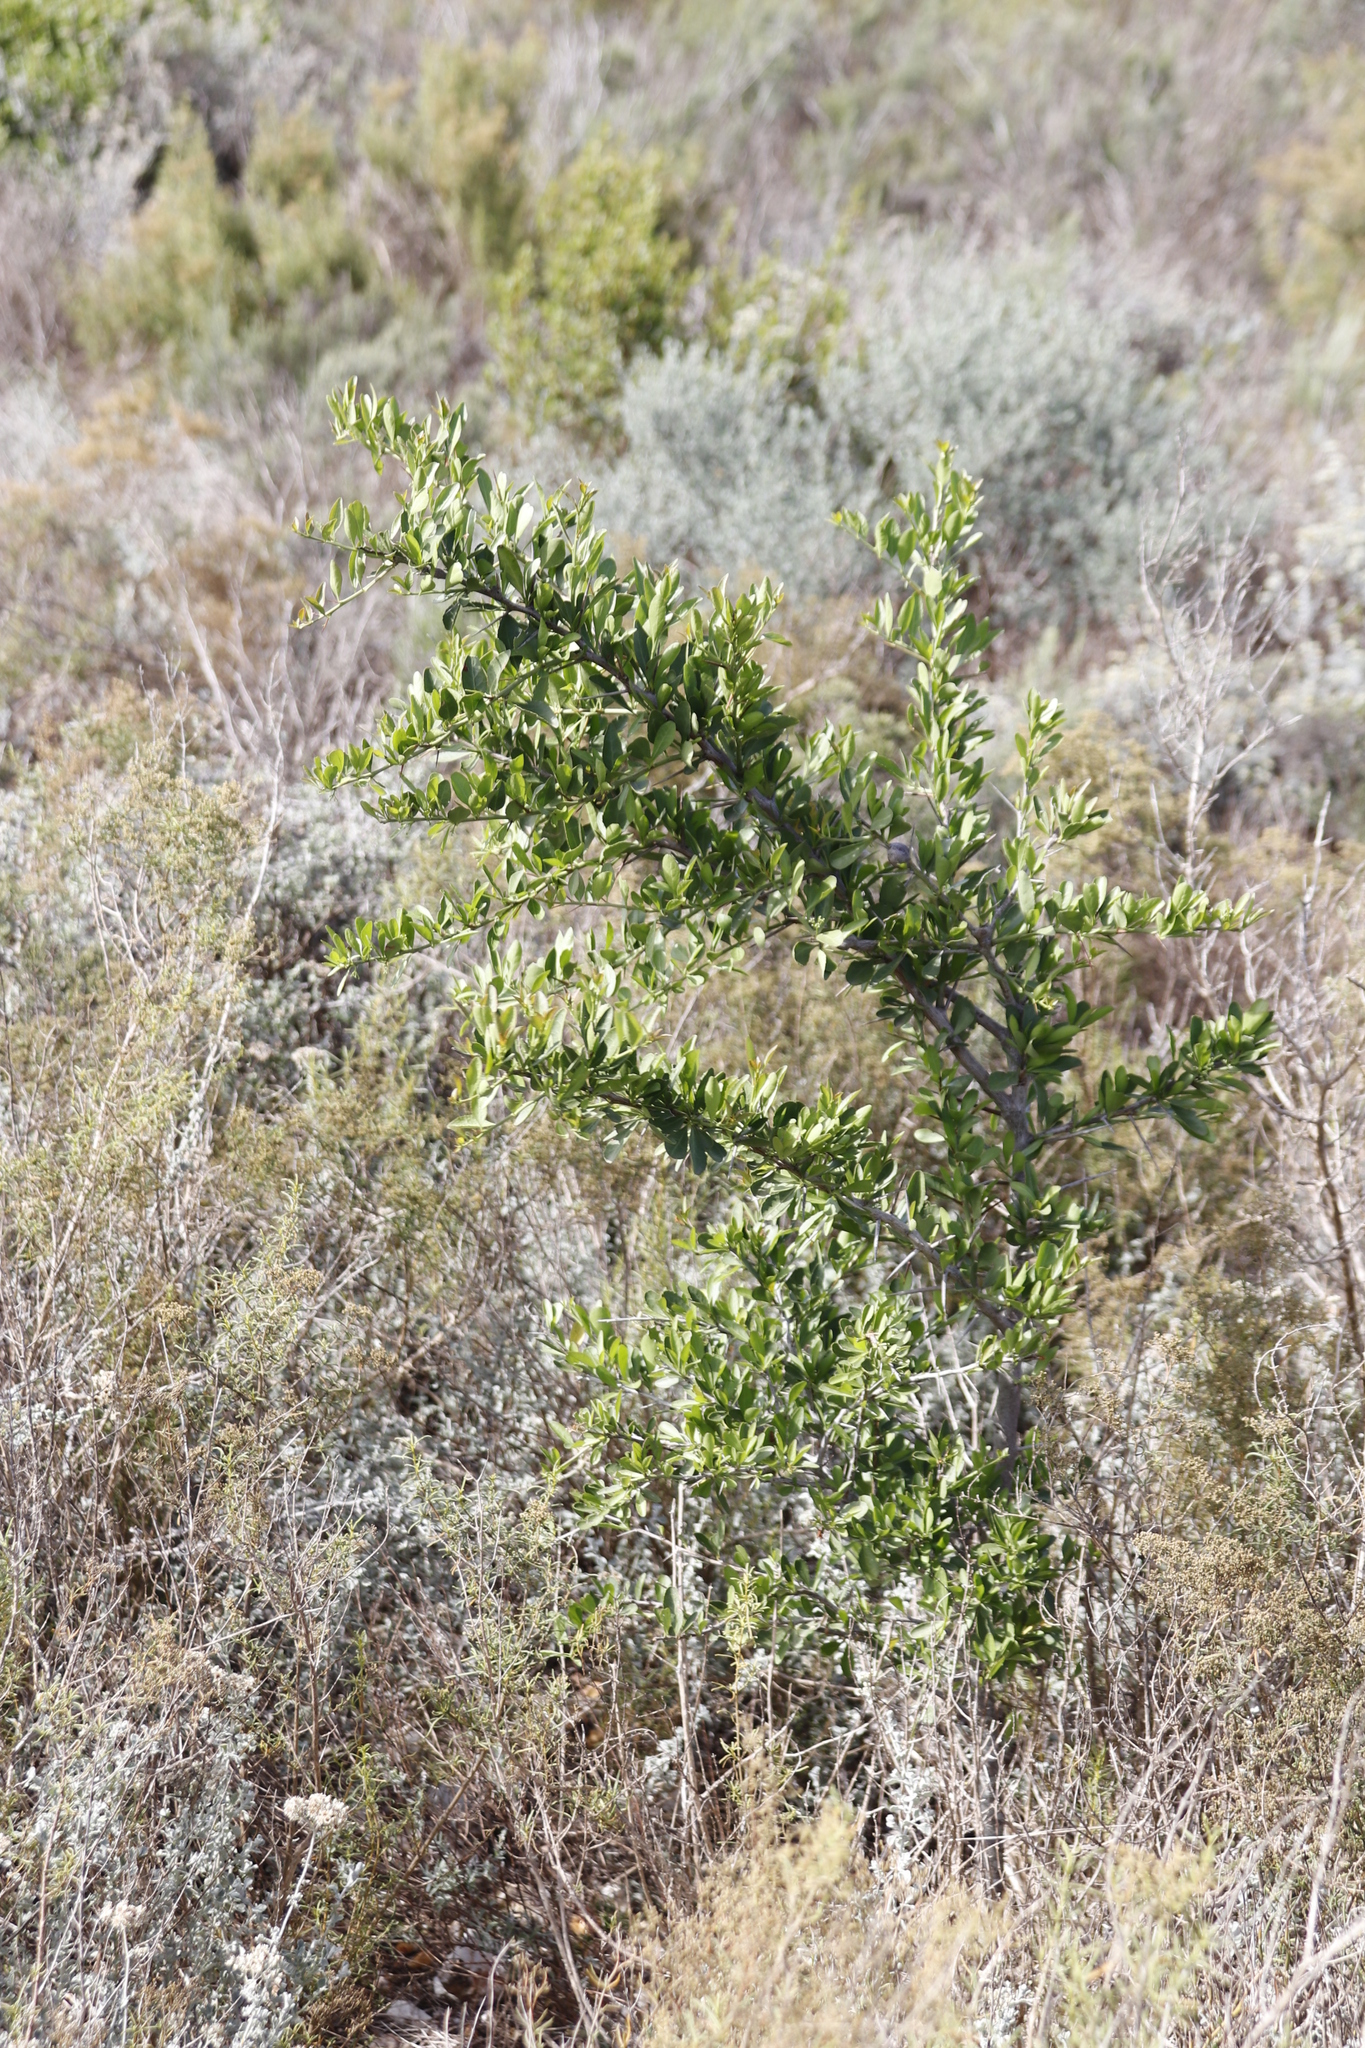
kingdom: Plantae
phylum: Tracheophyta
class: Magnoliopsida
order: Celastrales
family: Celastraceae
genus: Gymnosporia
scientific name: Gymnosporia buxifolia
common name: Common spike-thorn
